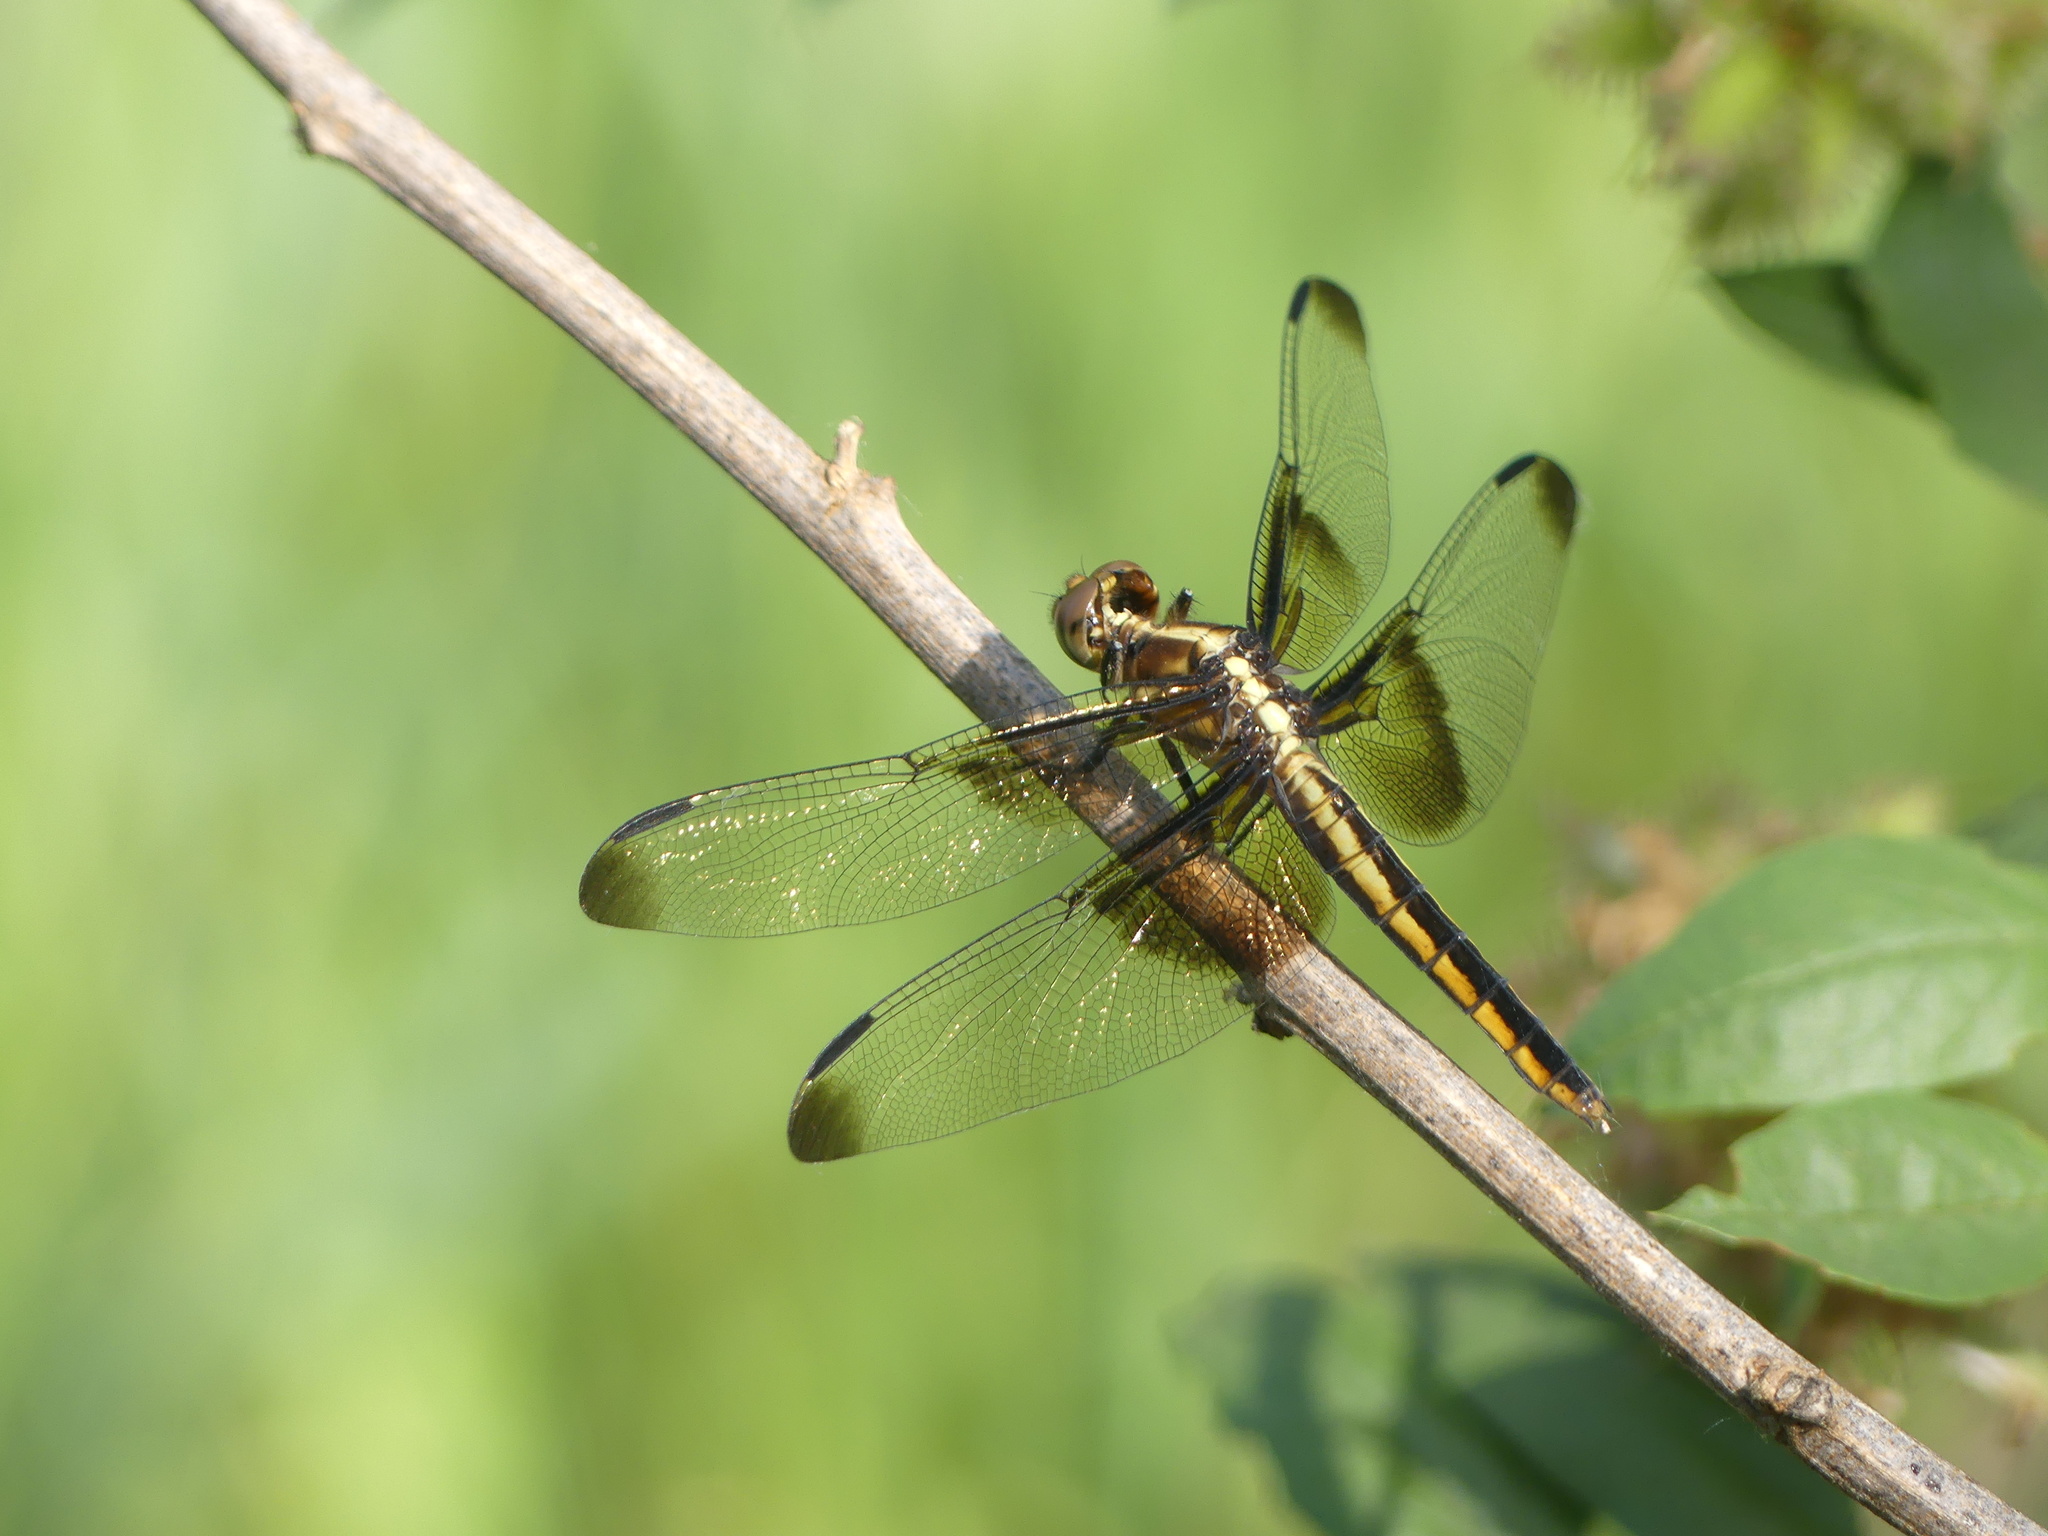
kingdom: Animalia
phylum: Arthropoda
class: Insecta
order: Odonata
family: Libellulidae
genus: Libellula
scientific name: Libellula luctuosa
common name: Widow skimmer
